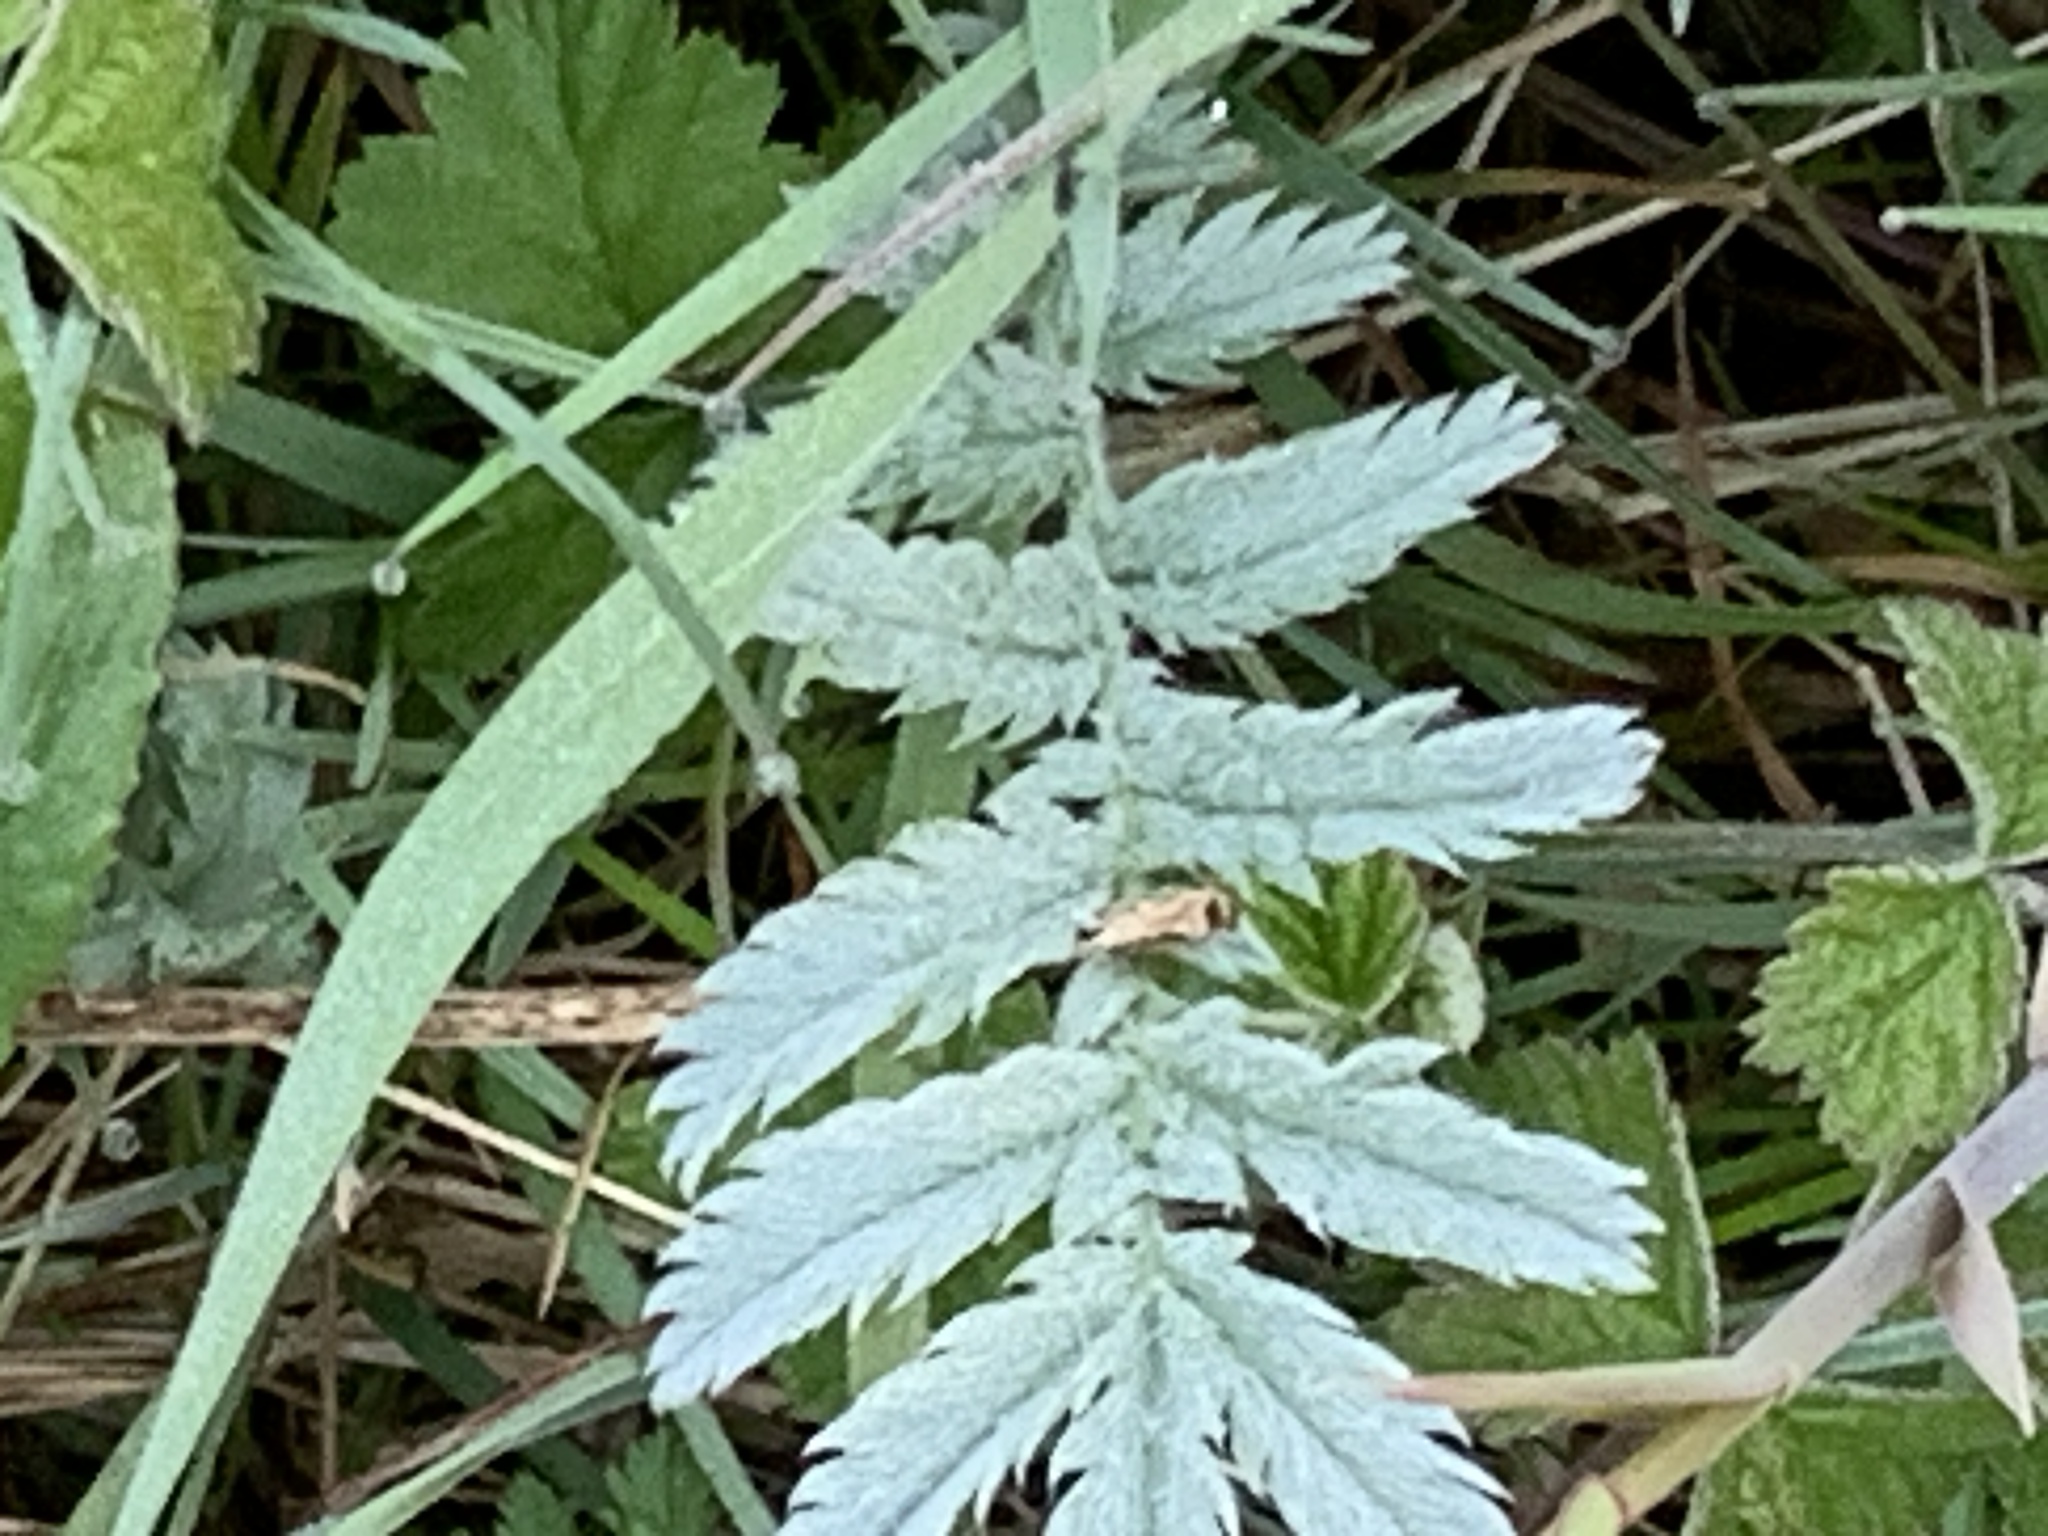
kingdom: Plantae
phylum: Tracheophyta
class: Magnoliopsida
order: Rosales
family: Rosaceae
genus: Argentina
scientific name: Argentina anserina
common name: Common silverweed
